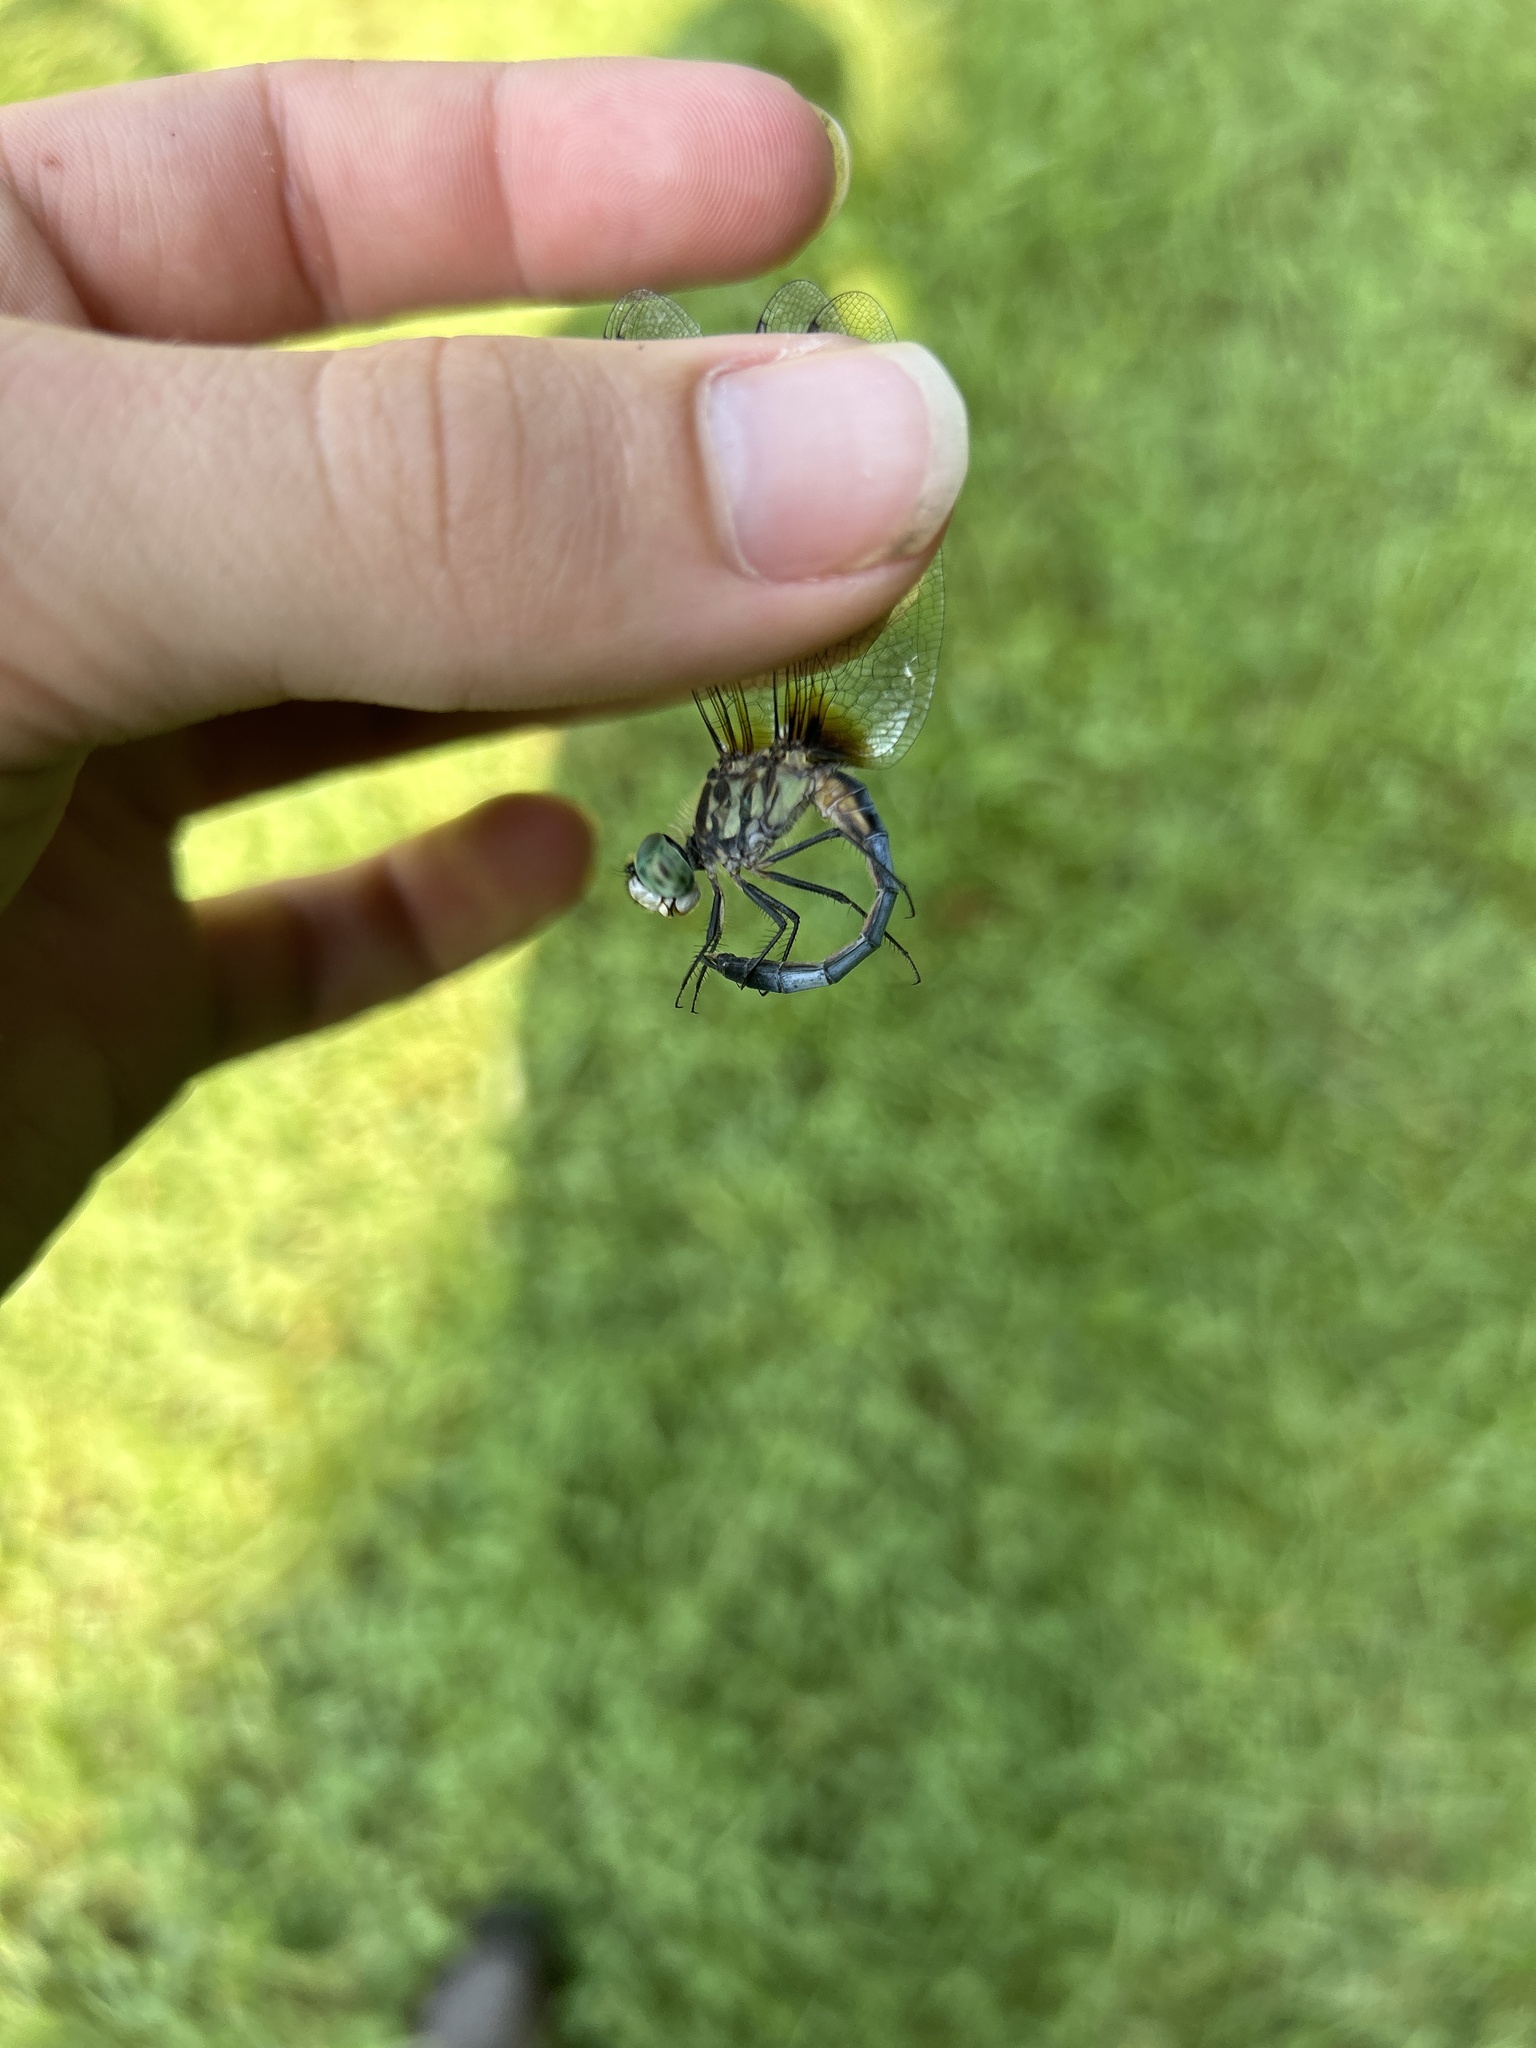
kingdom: Animalia
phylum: Arthropoda
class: Insecta
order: Odonata
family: Libellulidae
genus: Pachydiplax
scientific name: Pachydiplax longipennis
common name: Blue dasher
